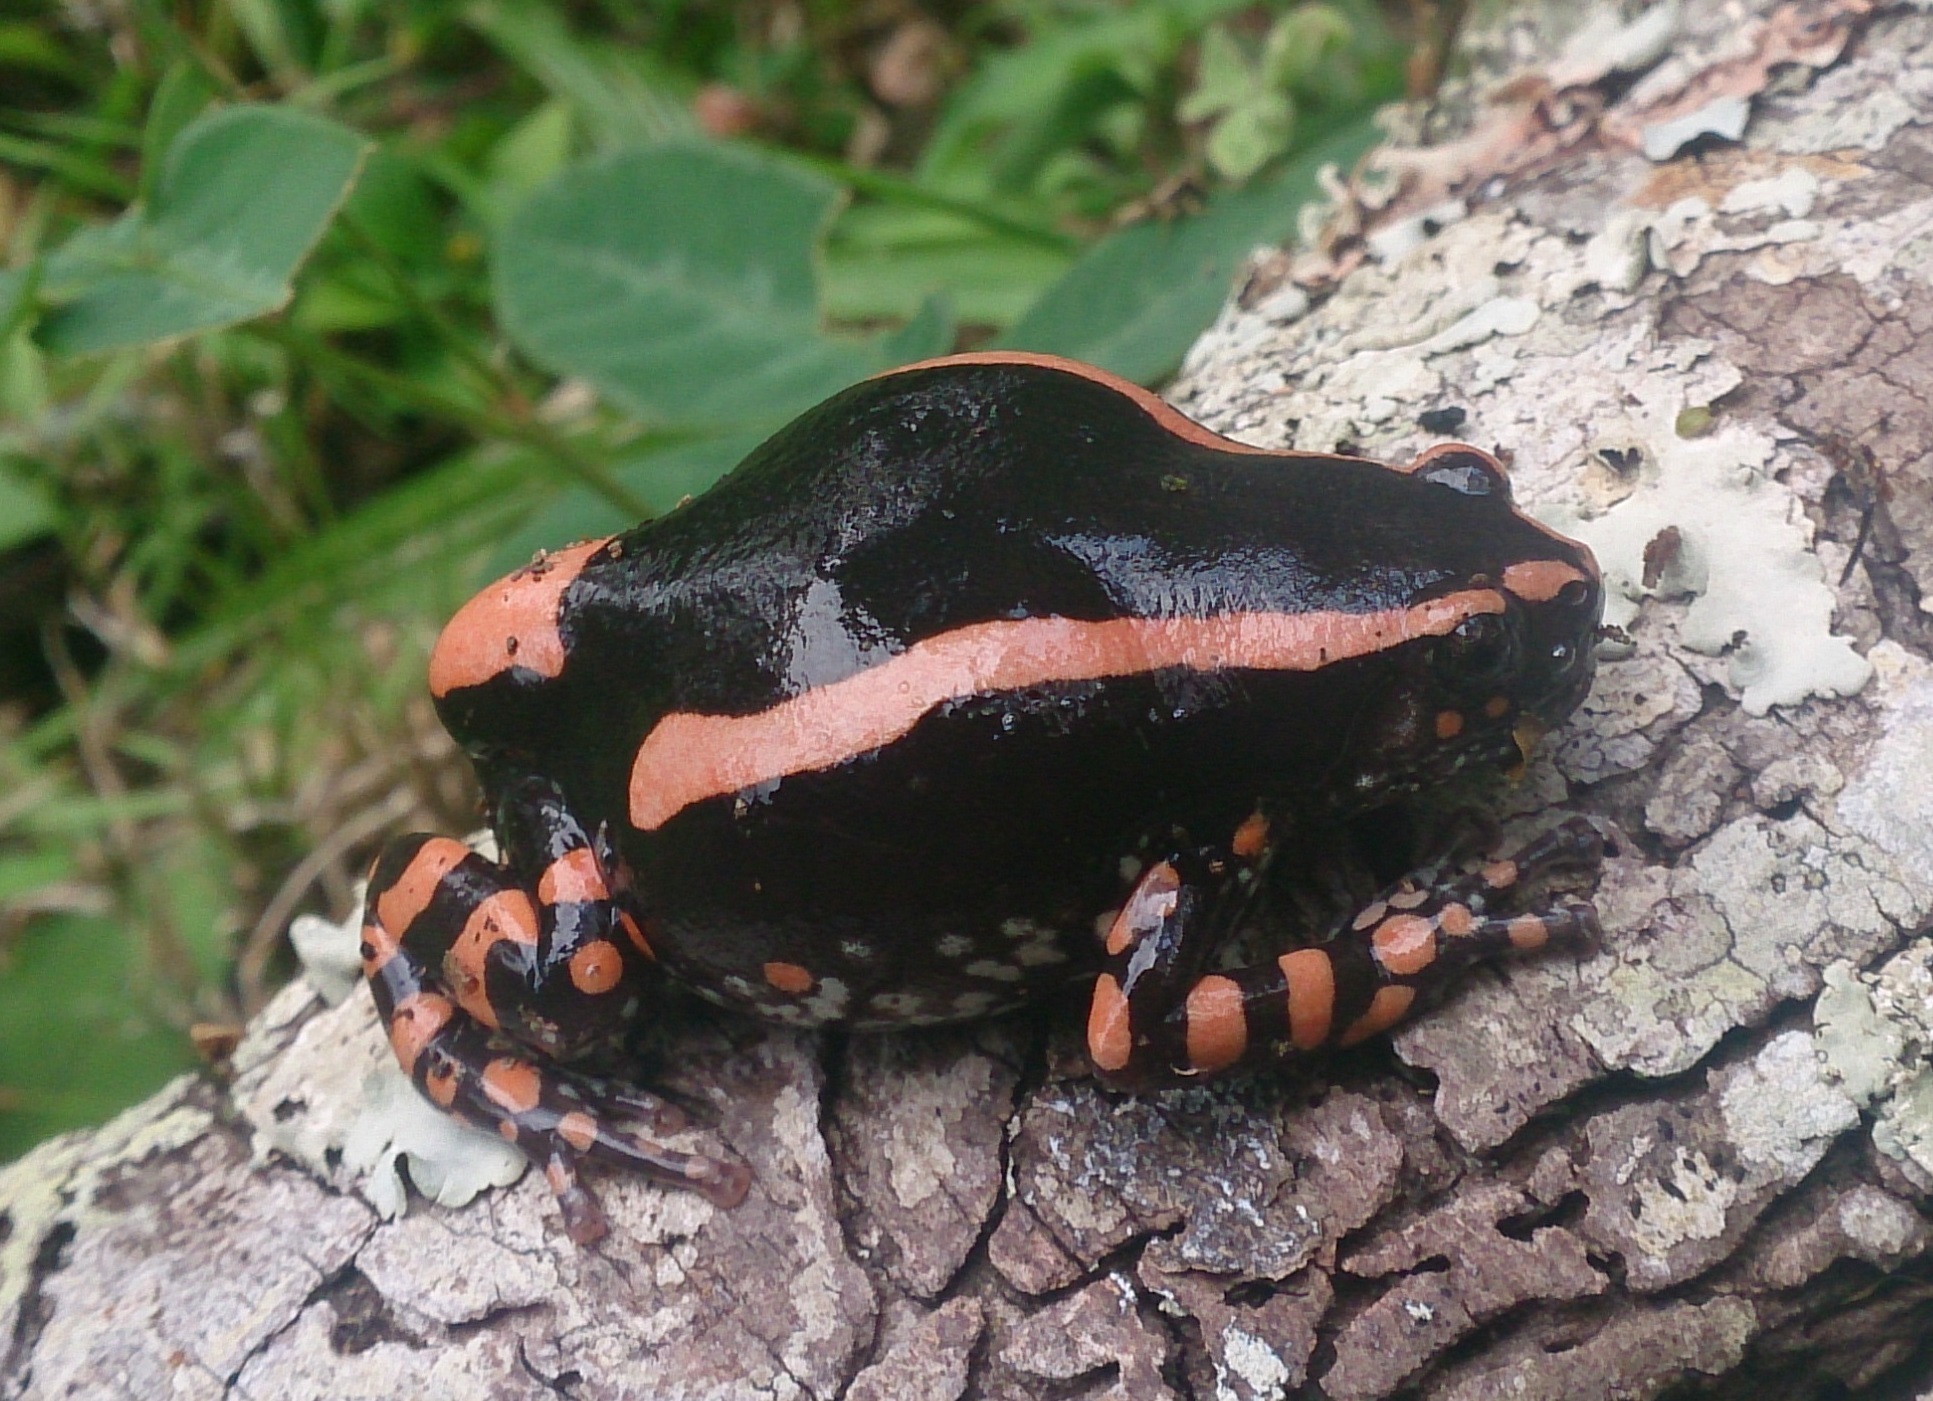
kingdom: Animalia
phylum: Chordata
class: Amphibia
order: Anura
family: Microhylidae
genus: Phrynomantis
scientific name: Phrynomantis bifasciatus
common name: Banded rubber frog
